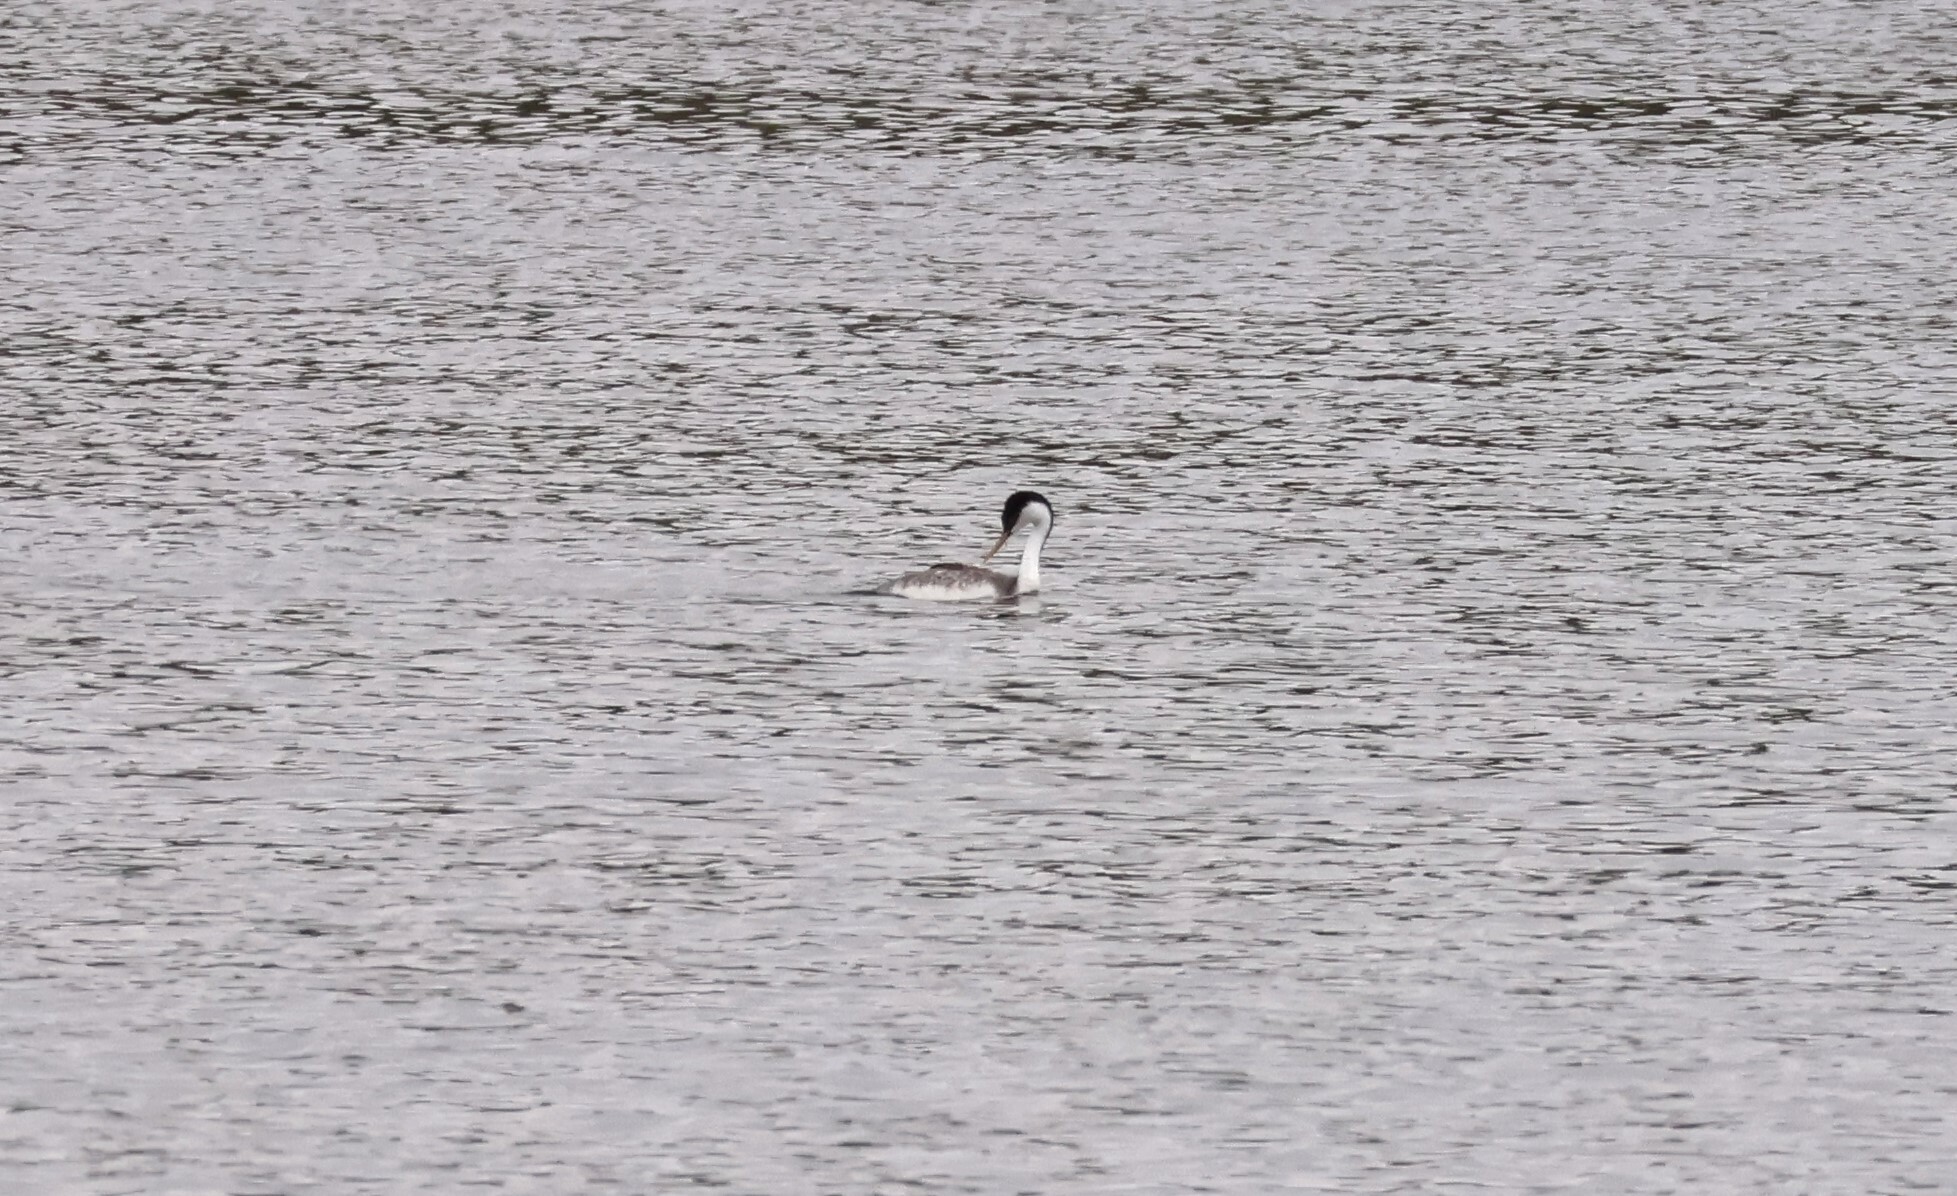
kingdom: Animalia
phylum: Chordata
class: Aves
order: Podicipediformes
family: Podicipedidae
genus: Aechmophorus
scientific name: Aechmophorus occidentalis
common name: Western grebe
